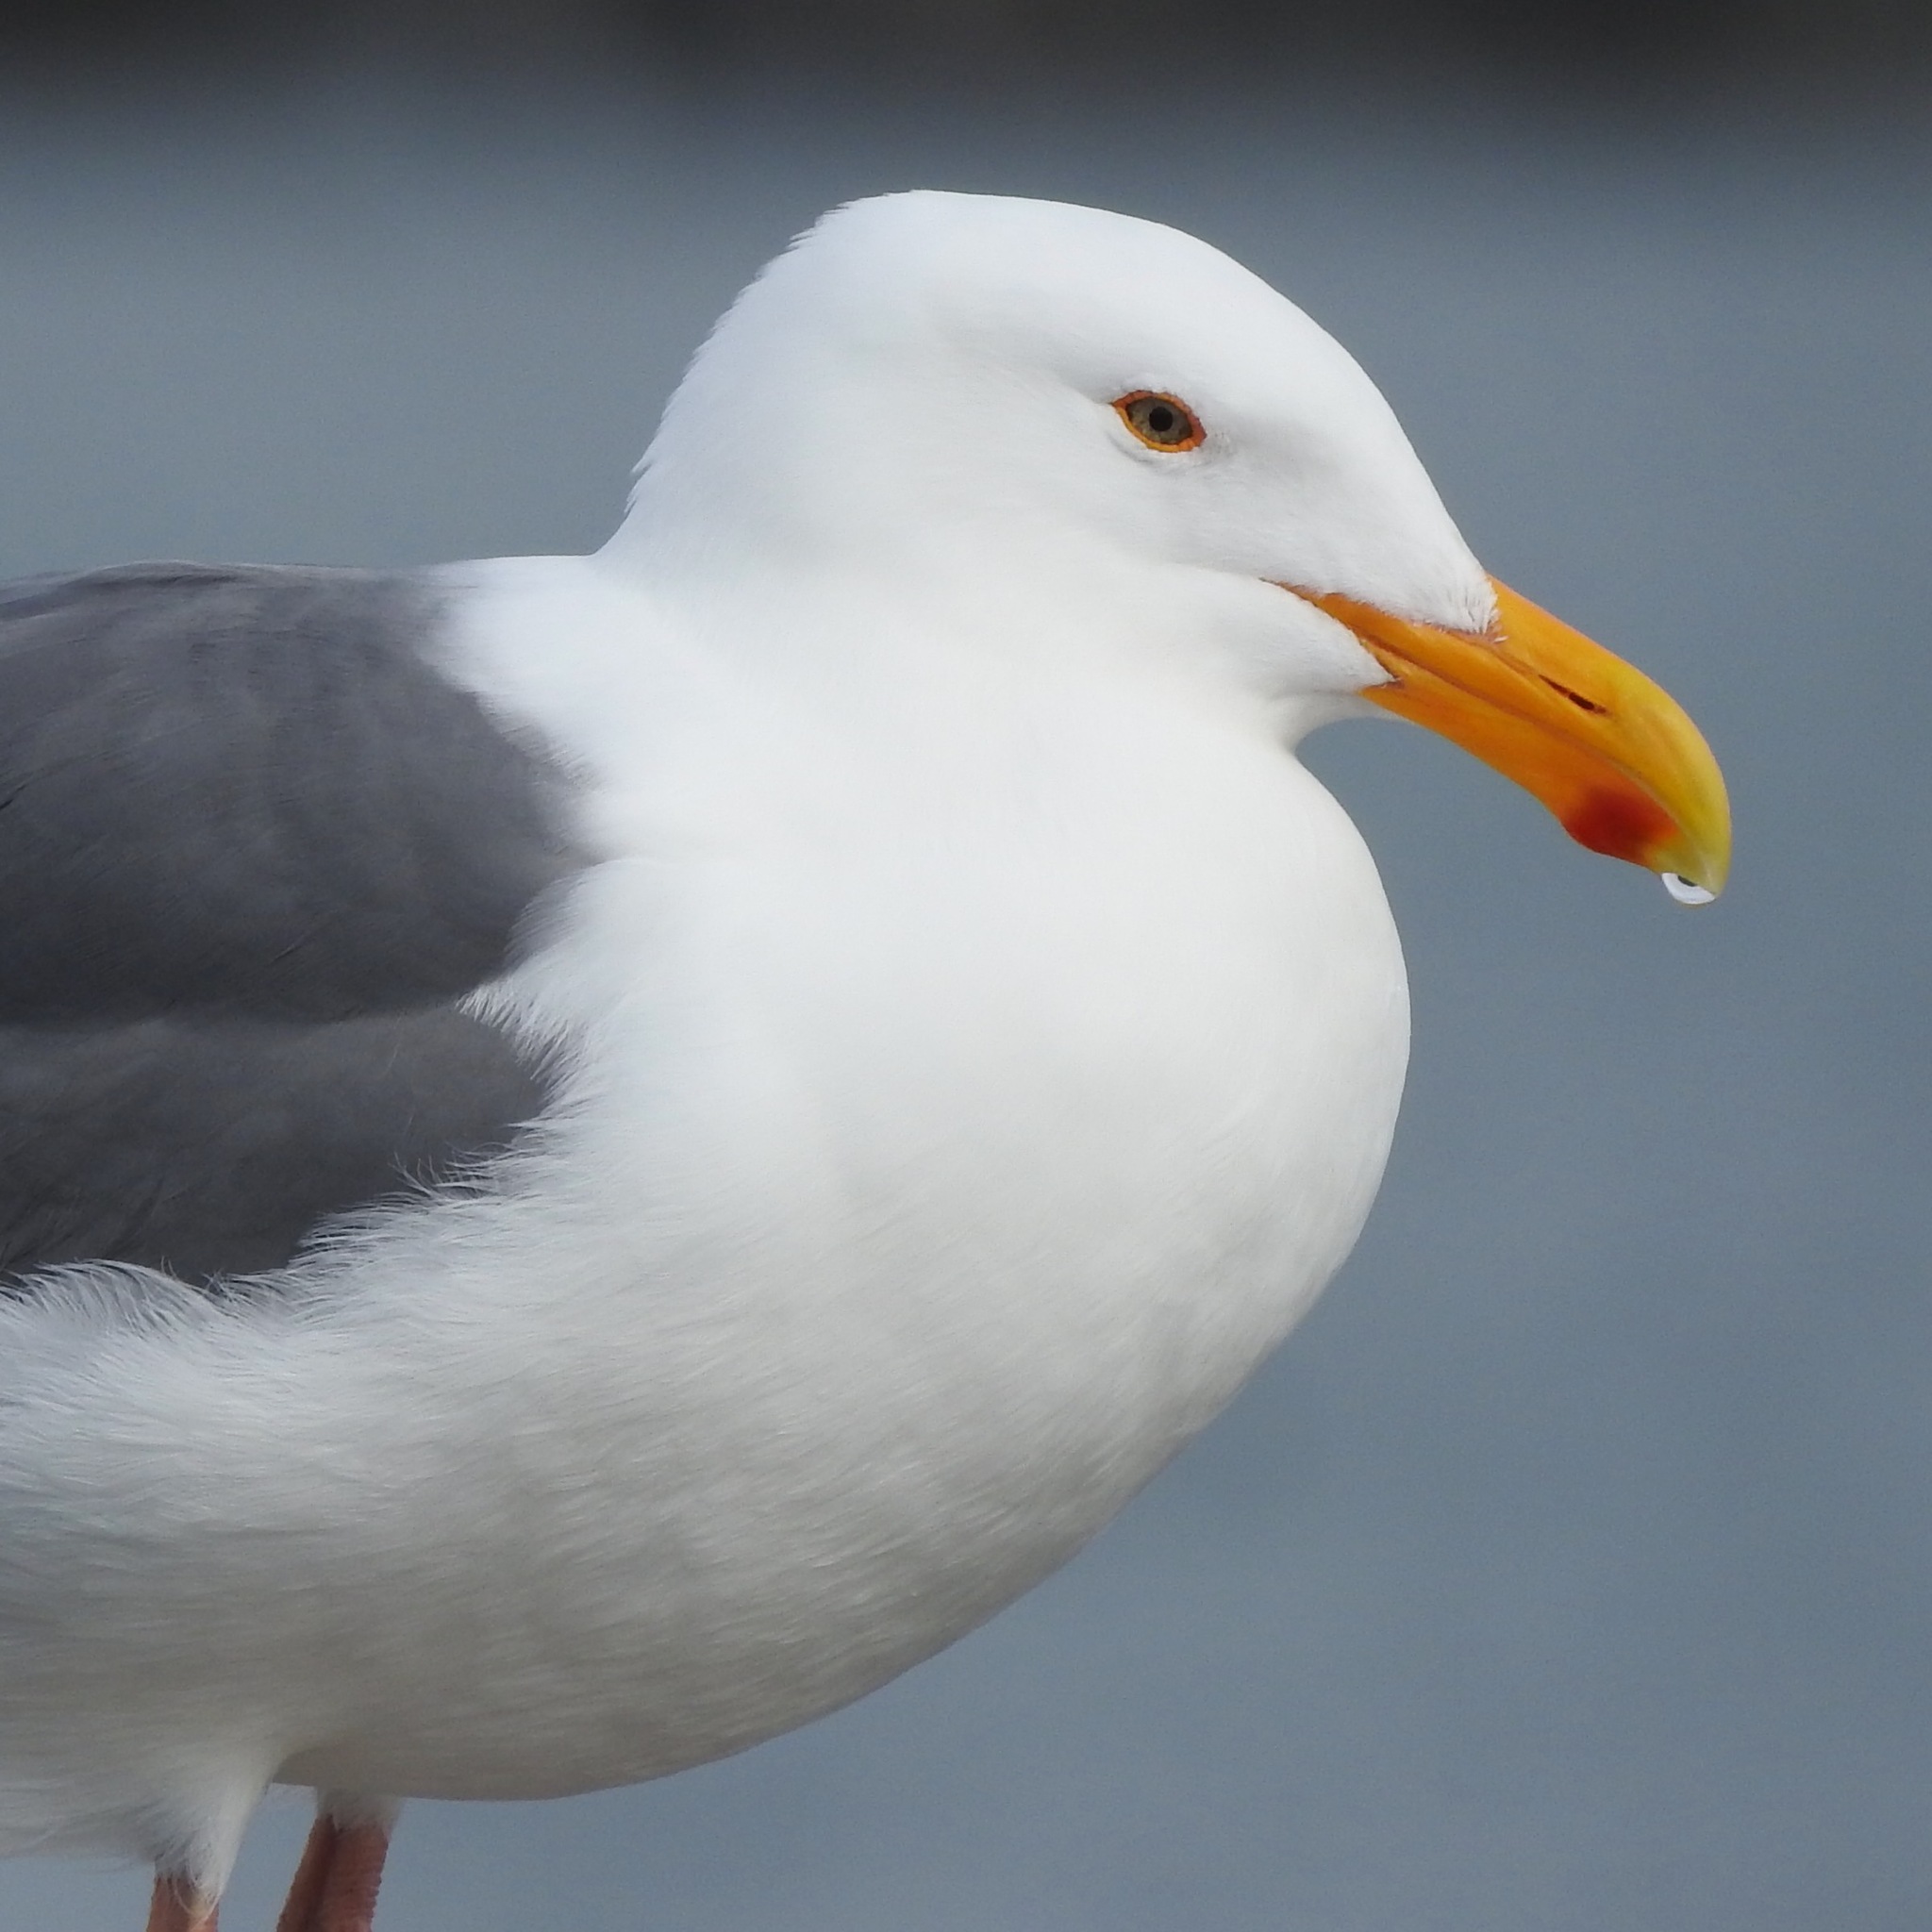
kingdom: Animalia
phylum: Chordata
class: Aves
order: Charadriiformes
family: Laridae
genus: Larus
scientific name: Larus occidentalis
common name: Western gull
